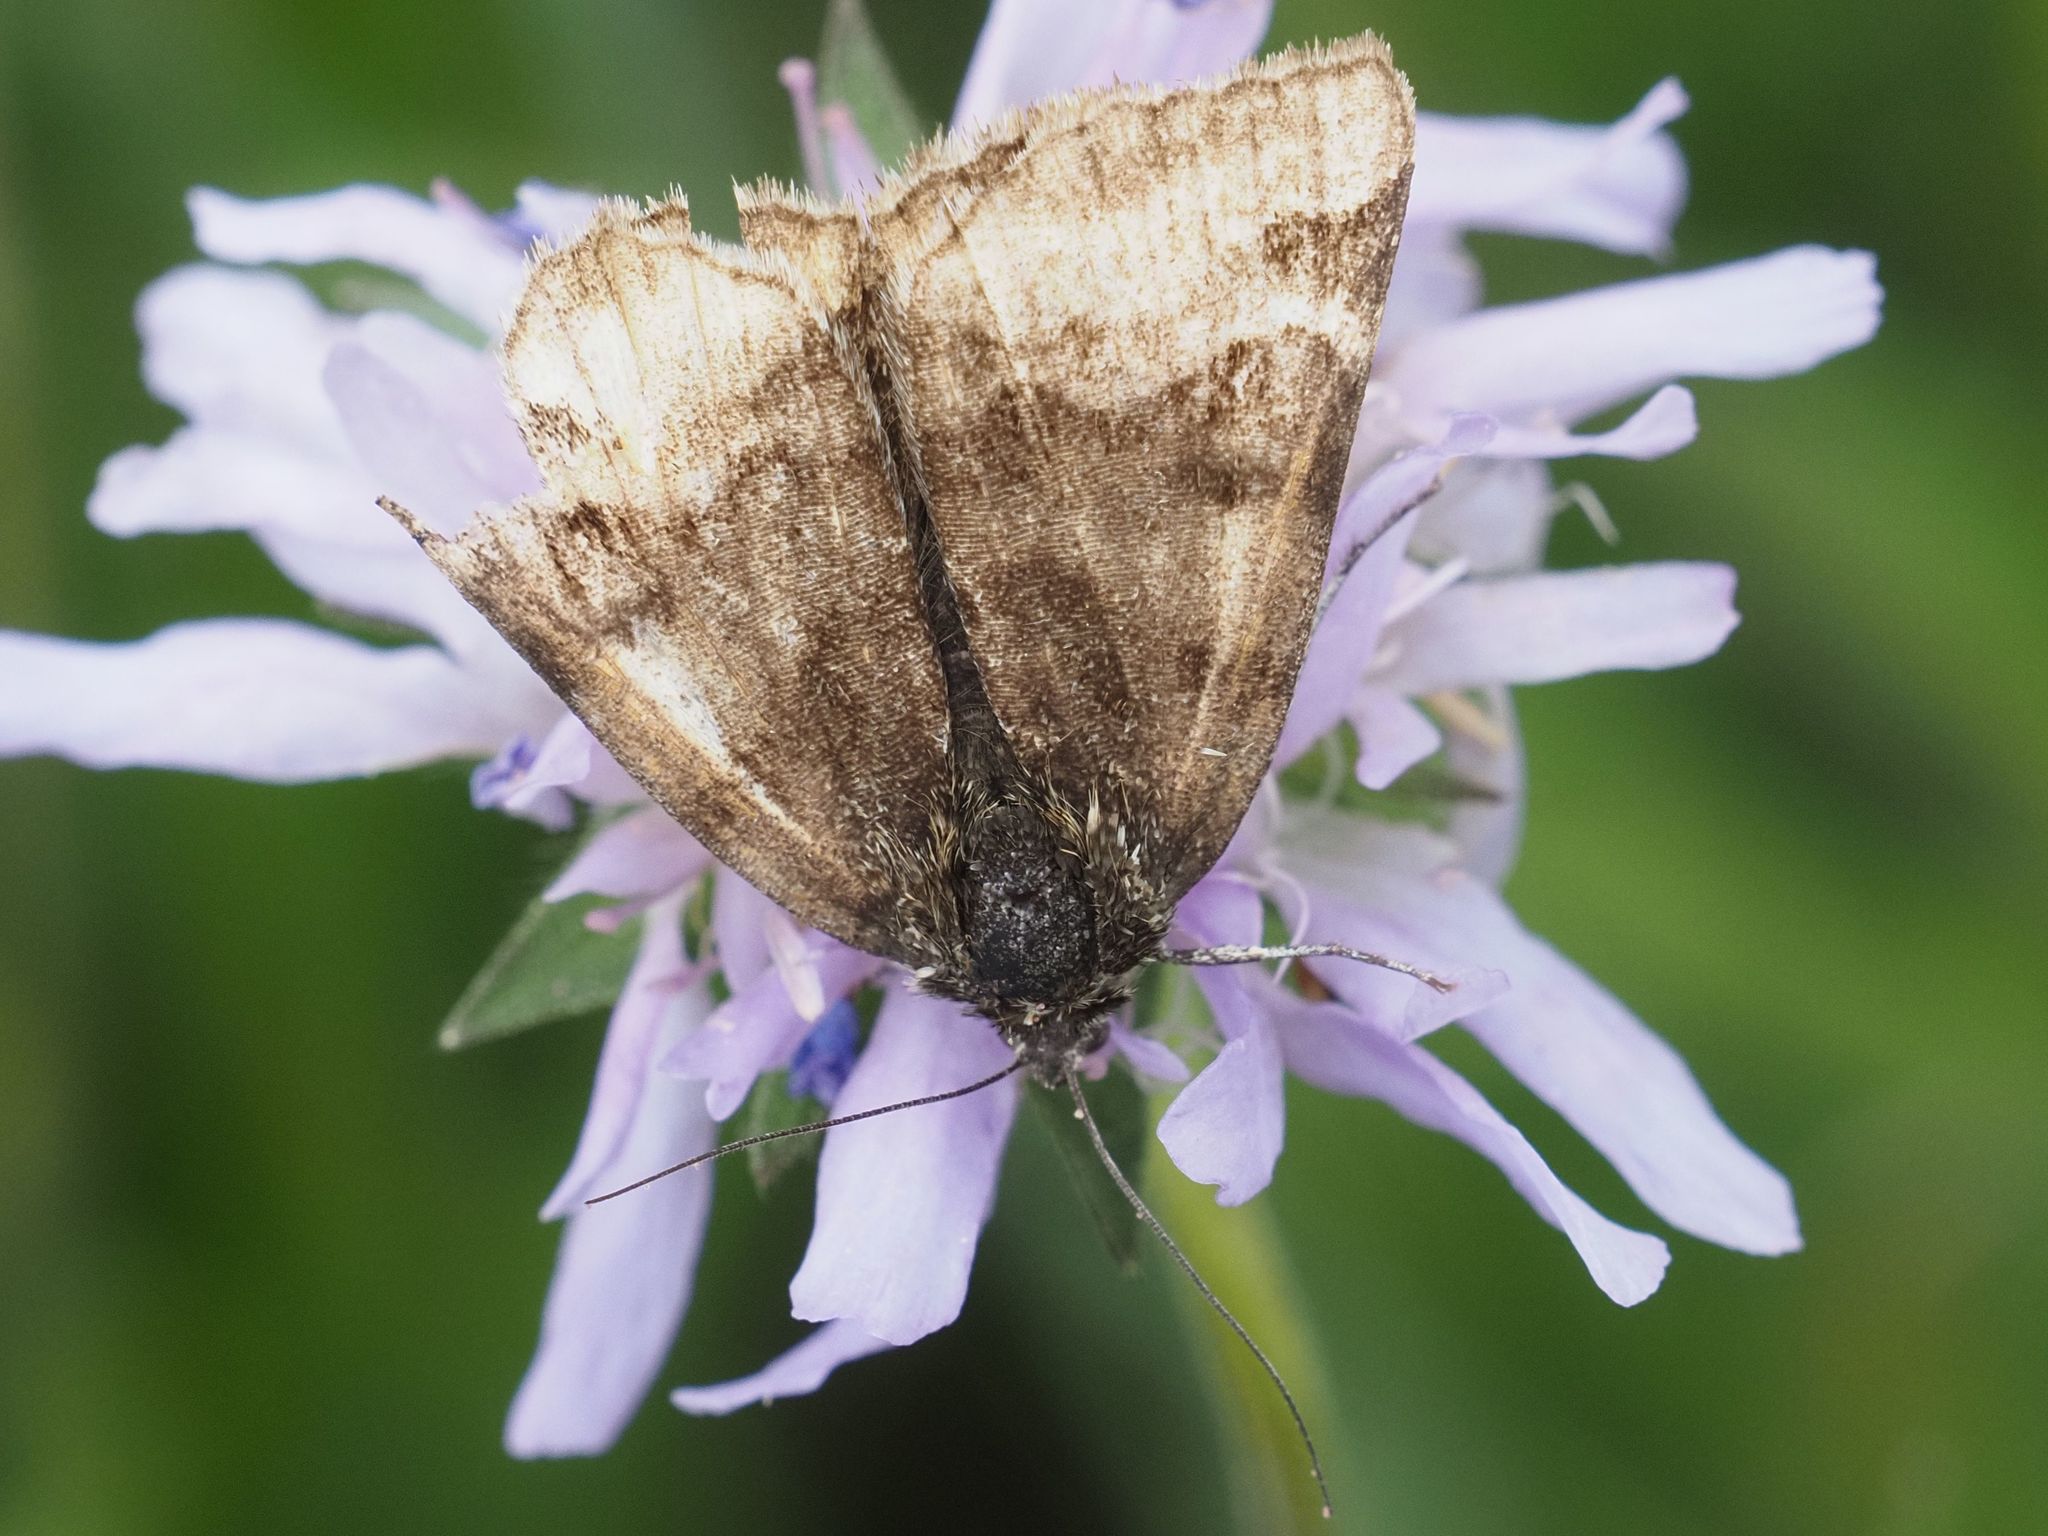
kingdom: Animalia
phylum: Arthropoda
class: Insecta
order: Lepidoptera
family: Erebidae
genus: Euclidia
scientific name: Euclidia glyphica
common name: Burnet companion
